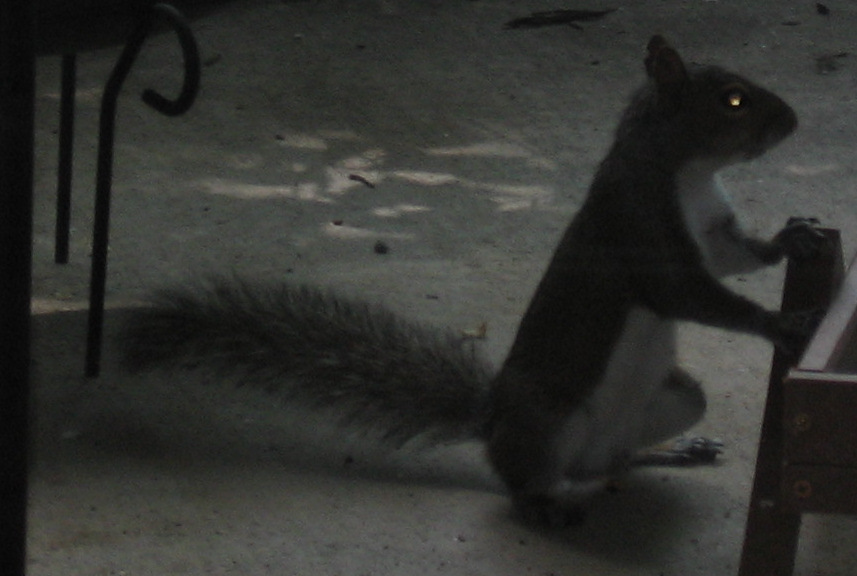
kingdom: Animalia
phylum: Chordata
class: Mammalia
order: Rodentia
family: Sciuridae
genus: Sciurus
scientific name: Sciurus carolinensis
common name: Eastern gray squirrel
